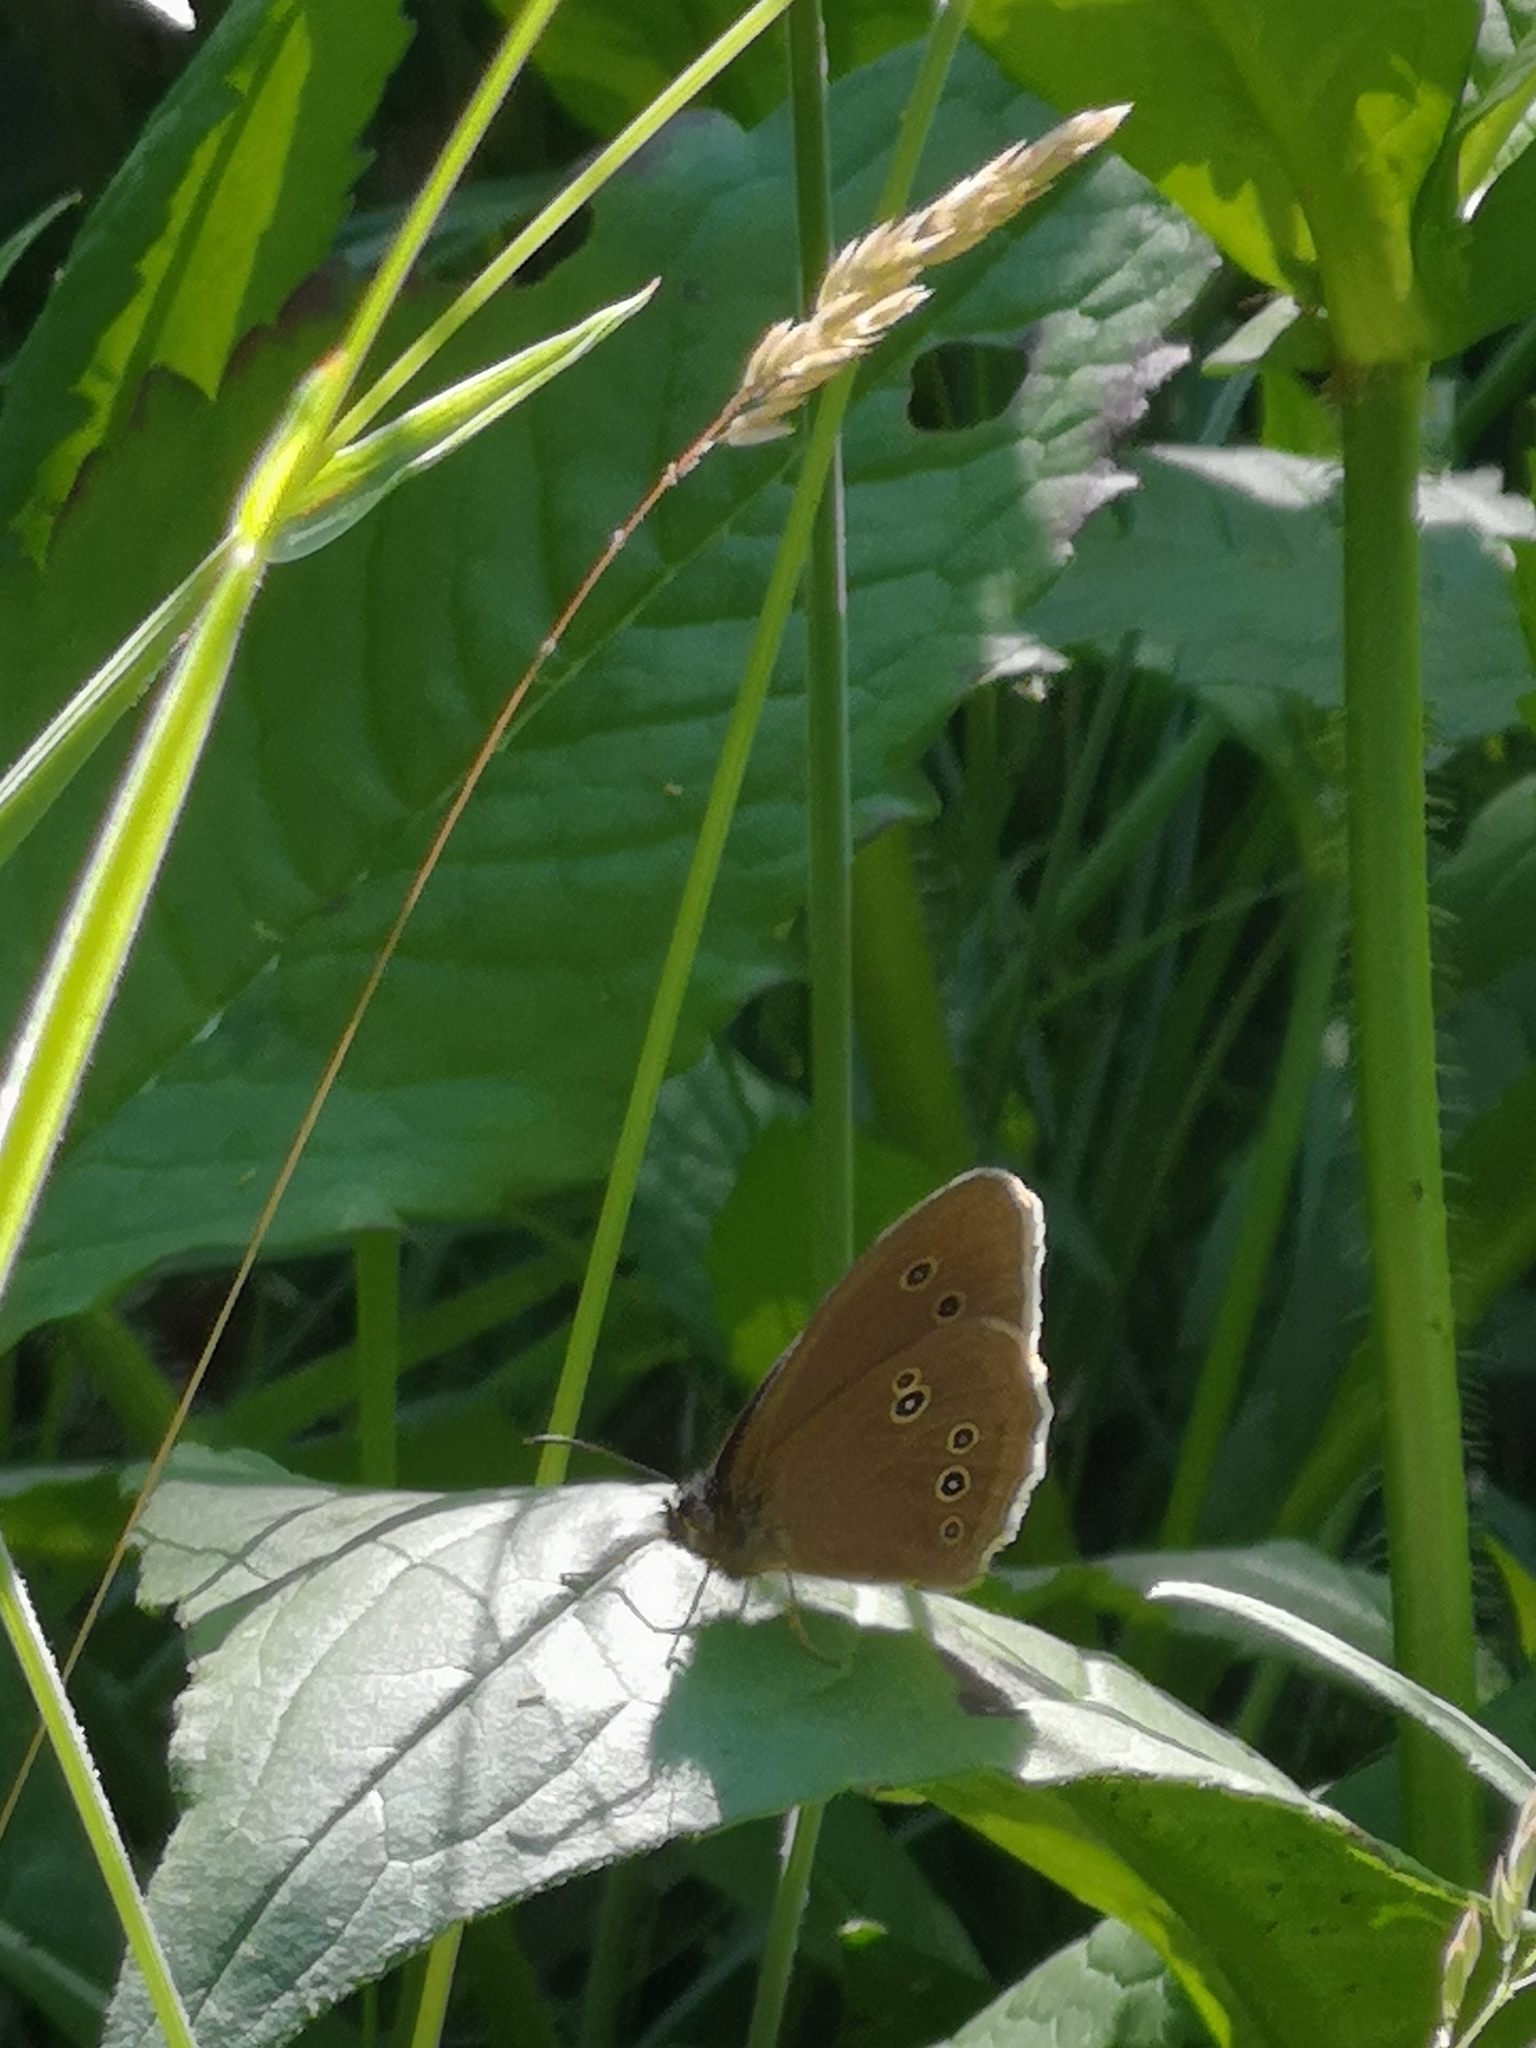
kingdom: Animalia
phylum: Arthropoda
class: Insecta
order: Lepidoptera
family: Nymphalidae
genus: Aphantopus
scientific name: Aphantopus hyperantus
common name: Ringlet
